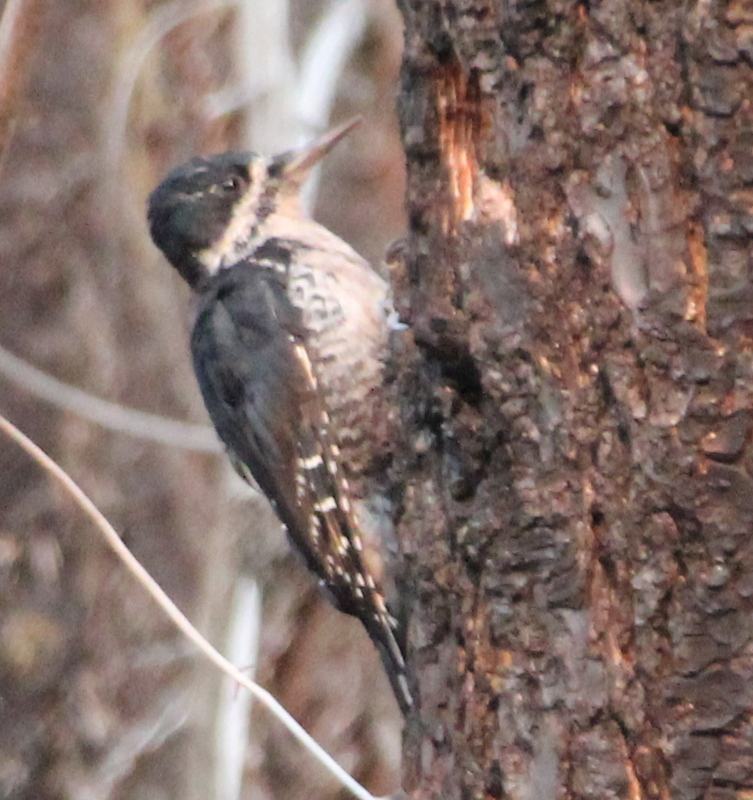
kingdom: Animalia
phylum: Chordata
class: Aves
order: Piciformes
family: Picidae
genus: Picoides
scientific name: Picoides arcticus
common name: Black-backed woodpecker
